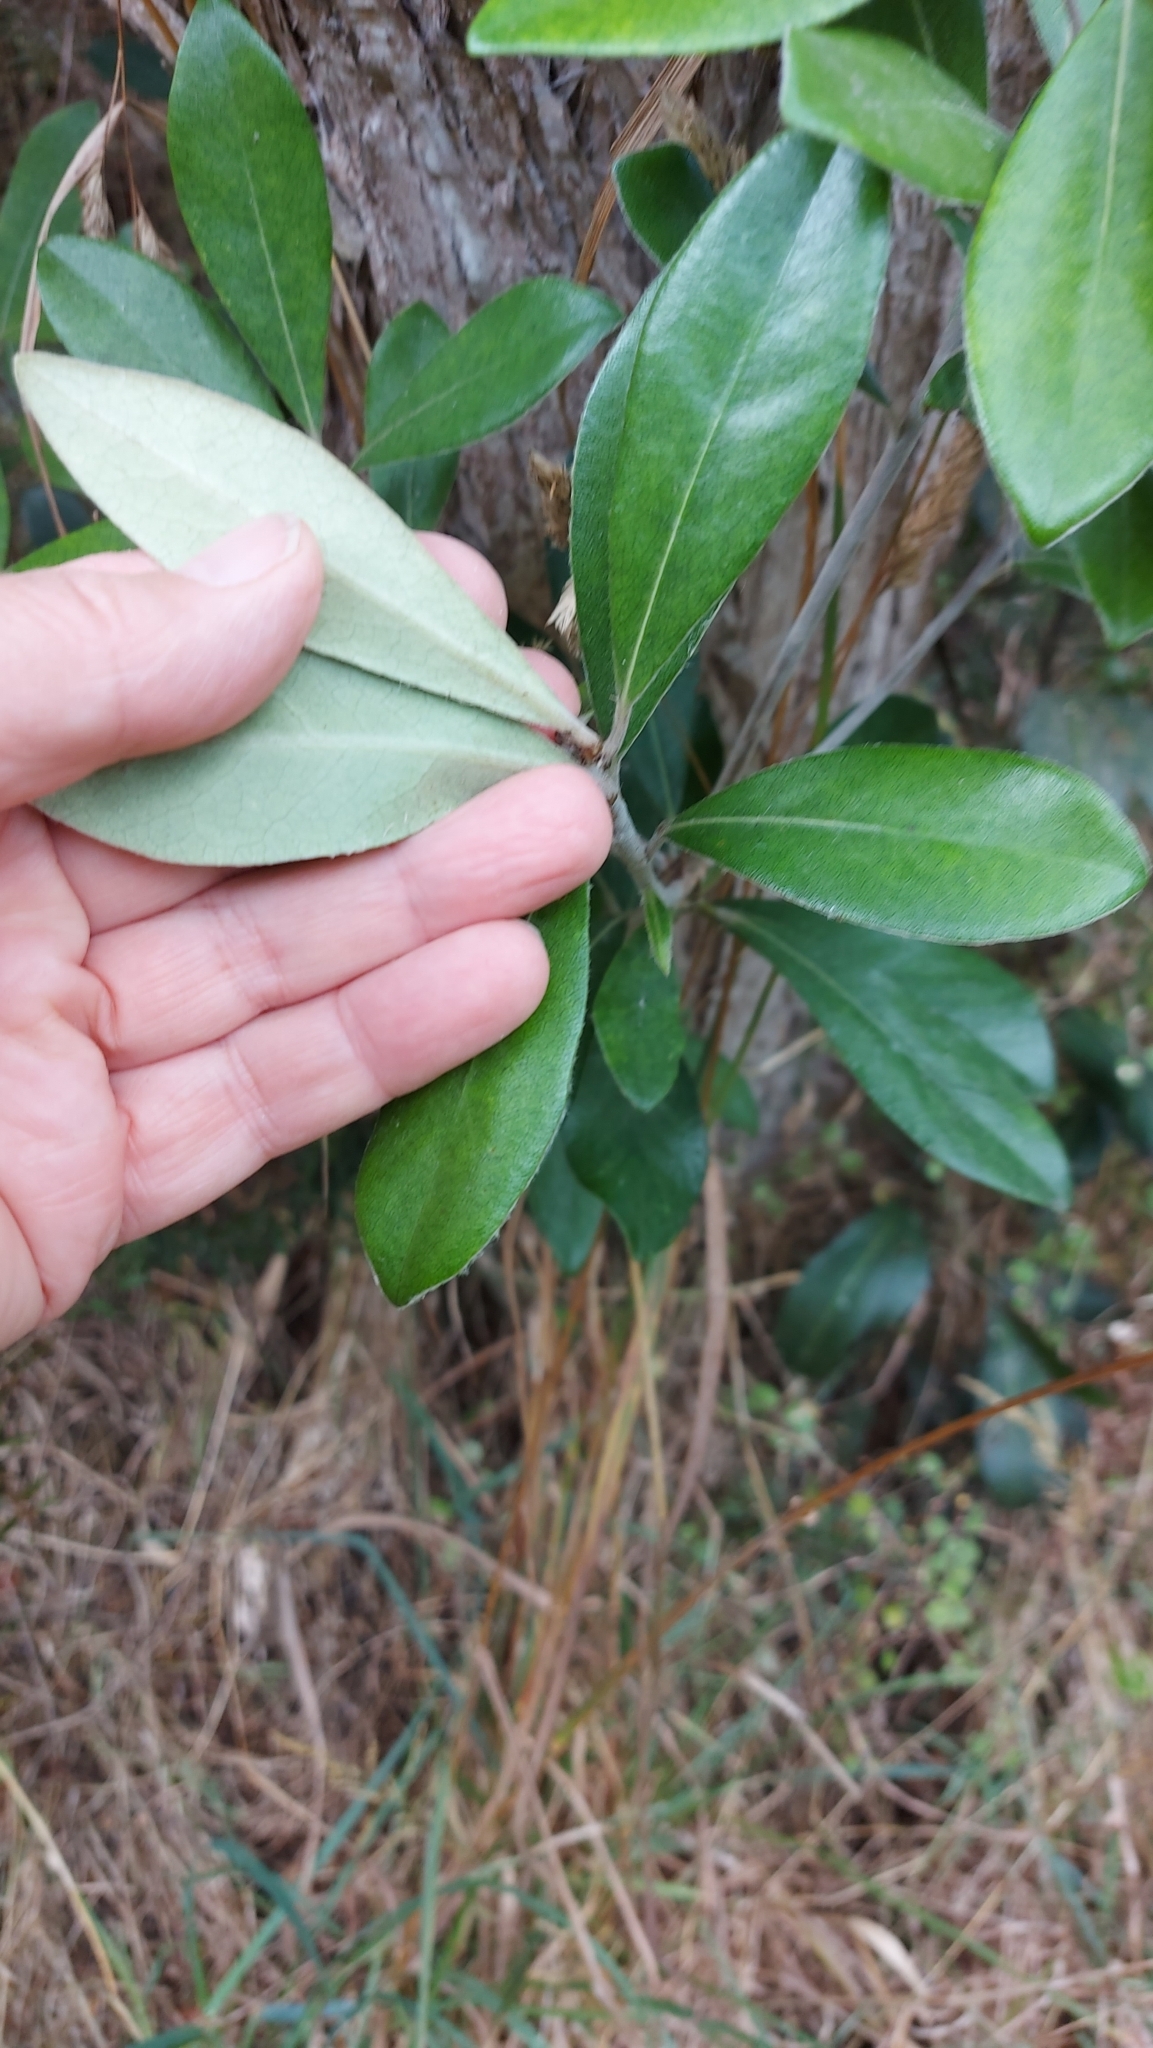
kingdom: Plantae
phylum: Tracheophyta
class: Magnoliopsida
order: Apiales
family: Pittosporaceae
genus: Pittosporum
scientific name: Pittosporum crassifolium
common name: Karo
